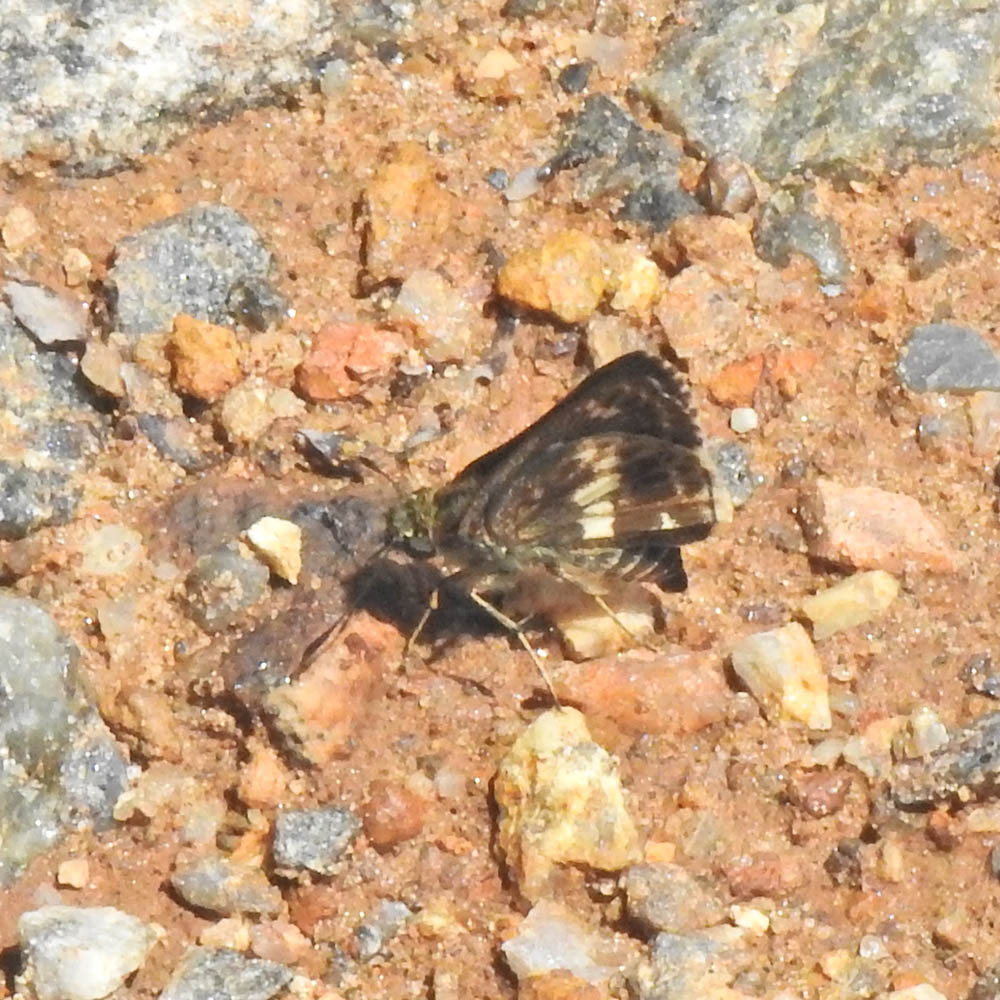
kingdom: Animalia
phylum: Arthropoda
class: Insecta
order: Lepidoptera
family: Hesperiidae
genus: Halpe
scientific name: Halpe porus
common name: Moore's ace
